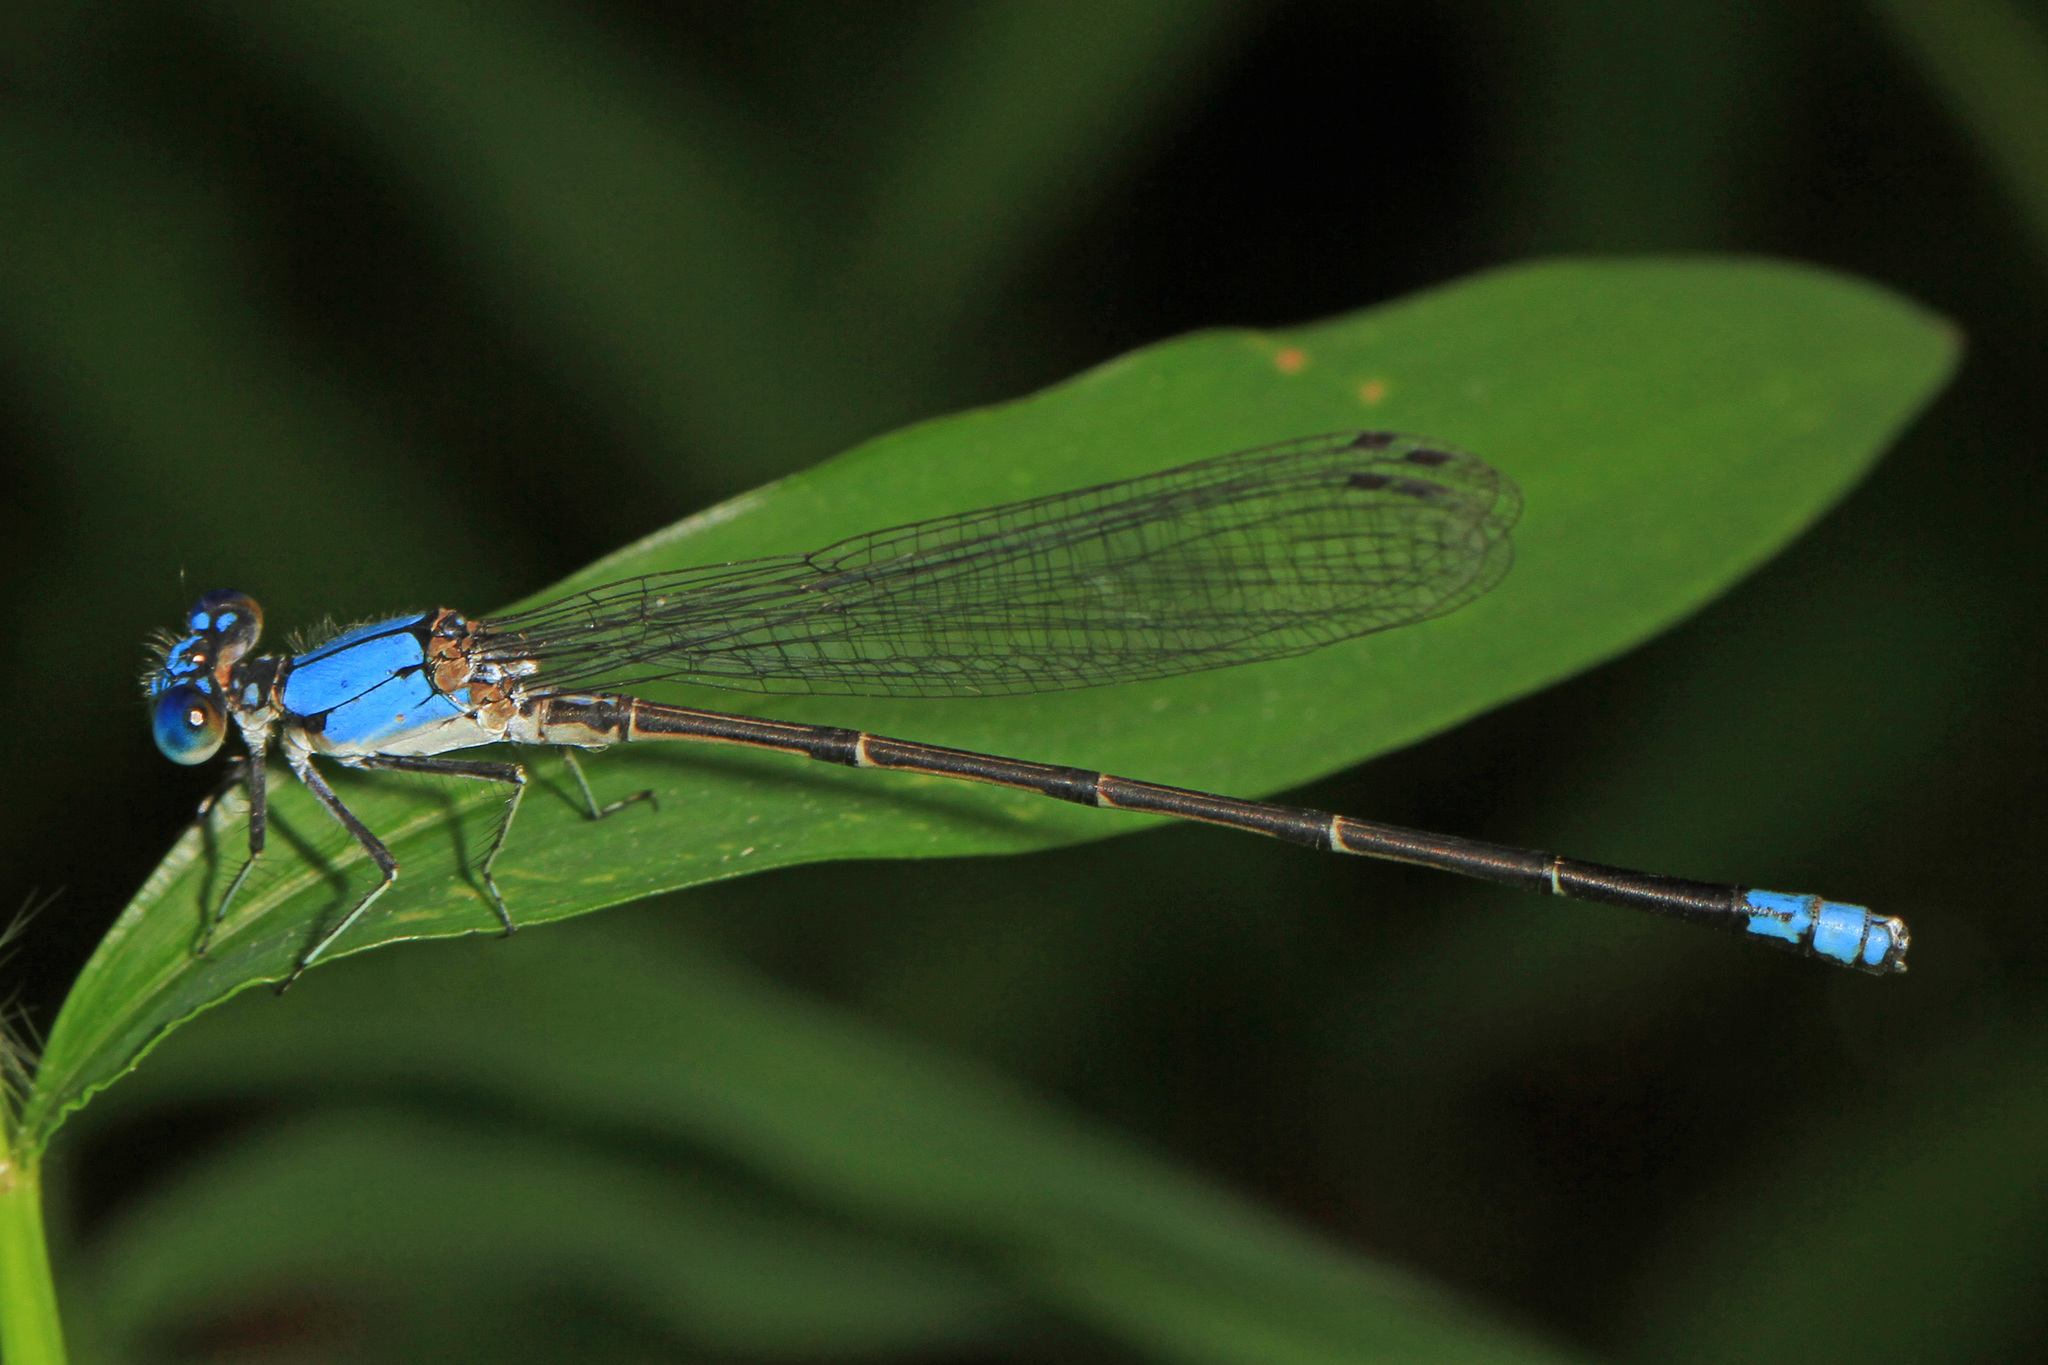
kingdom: Animalia
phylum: Arthropoda
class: Insecta
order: Odonata
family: Coenagrionidae
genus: Argia
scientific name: Argia apicalis
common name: Blue-fronted dancer
